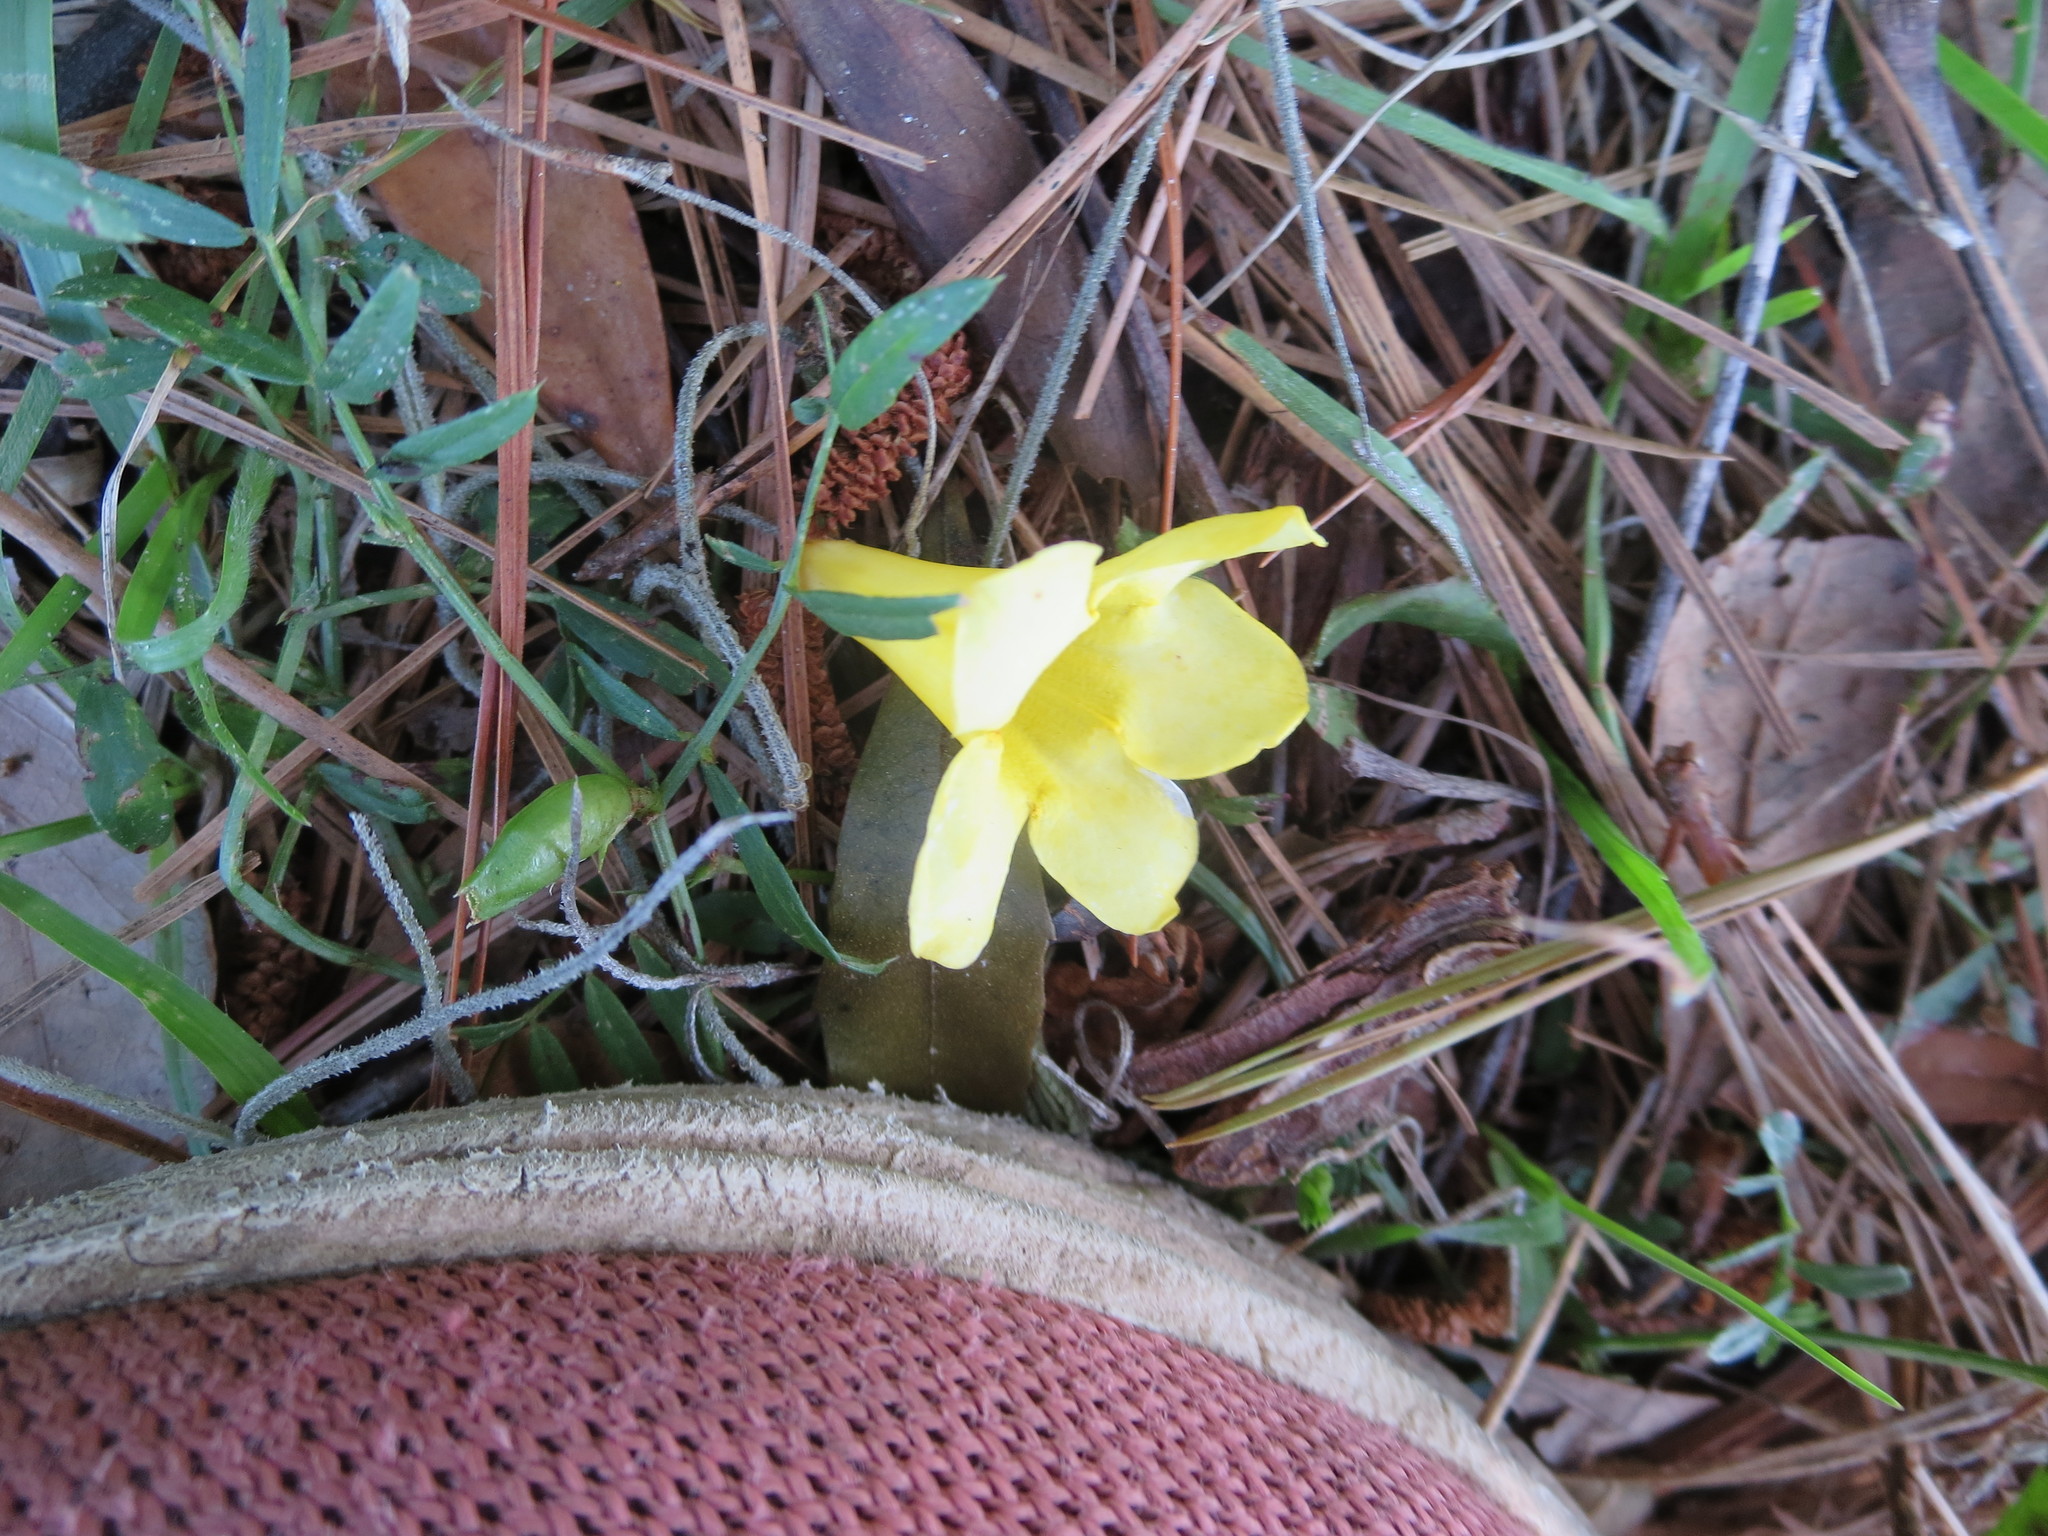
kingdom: Plantae
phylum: Tracheophyta
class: Magnoliopsida
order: Gentianales
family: Gelsemiaceae
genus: Gelsemium
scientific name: Gelsemium sempervirens
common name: Carolina-jasmine
